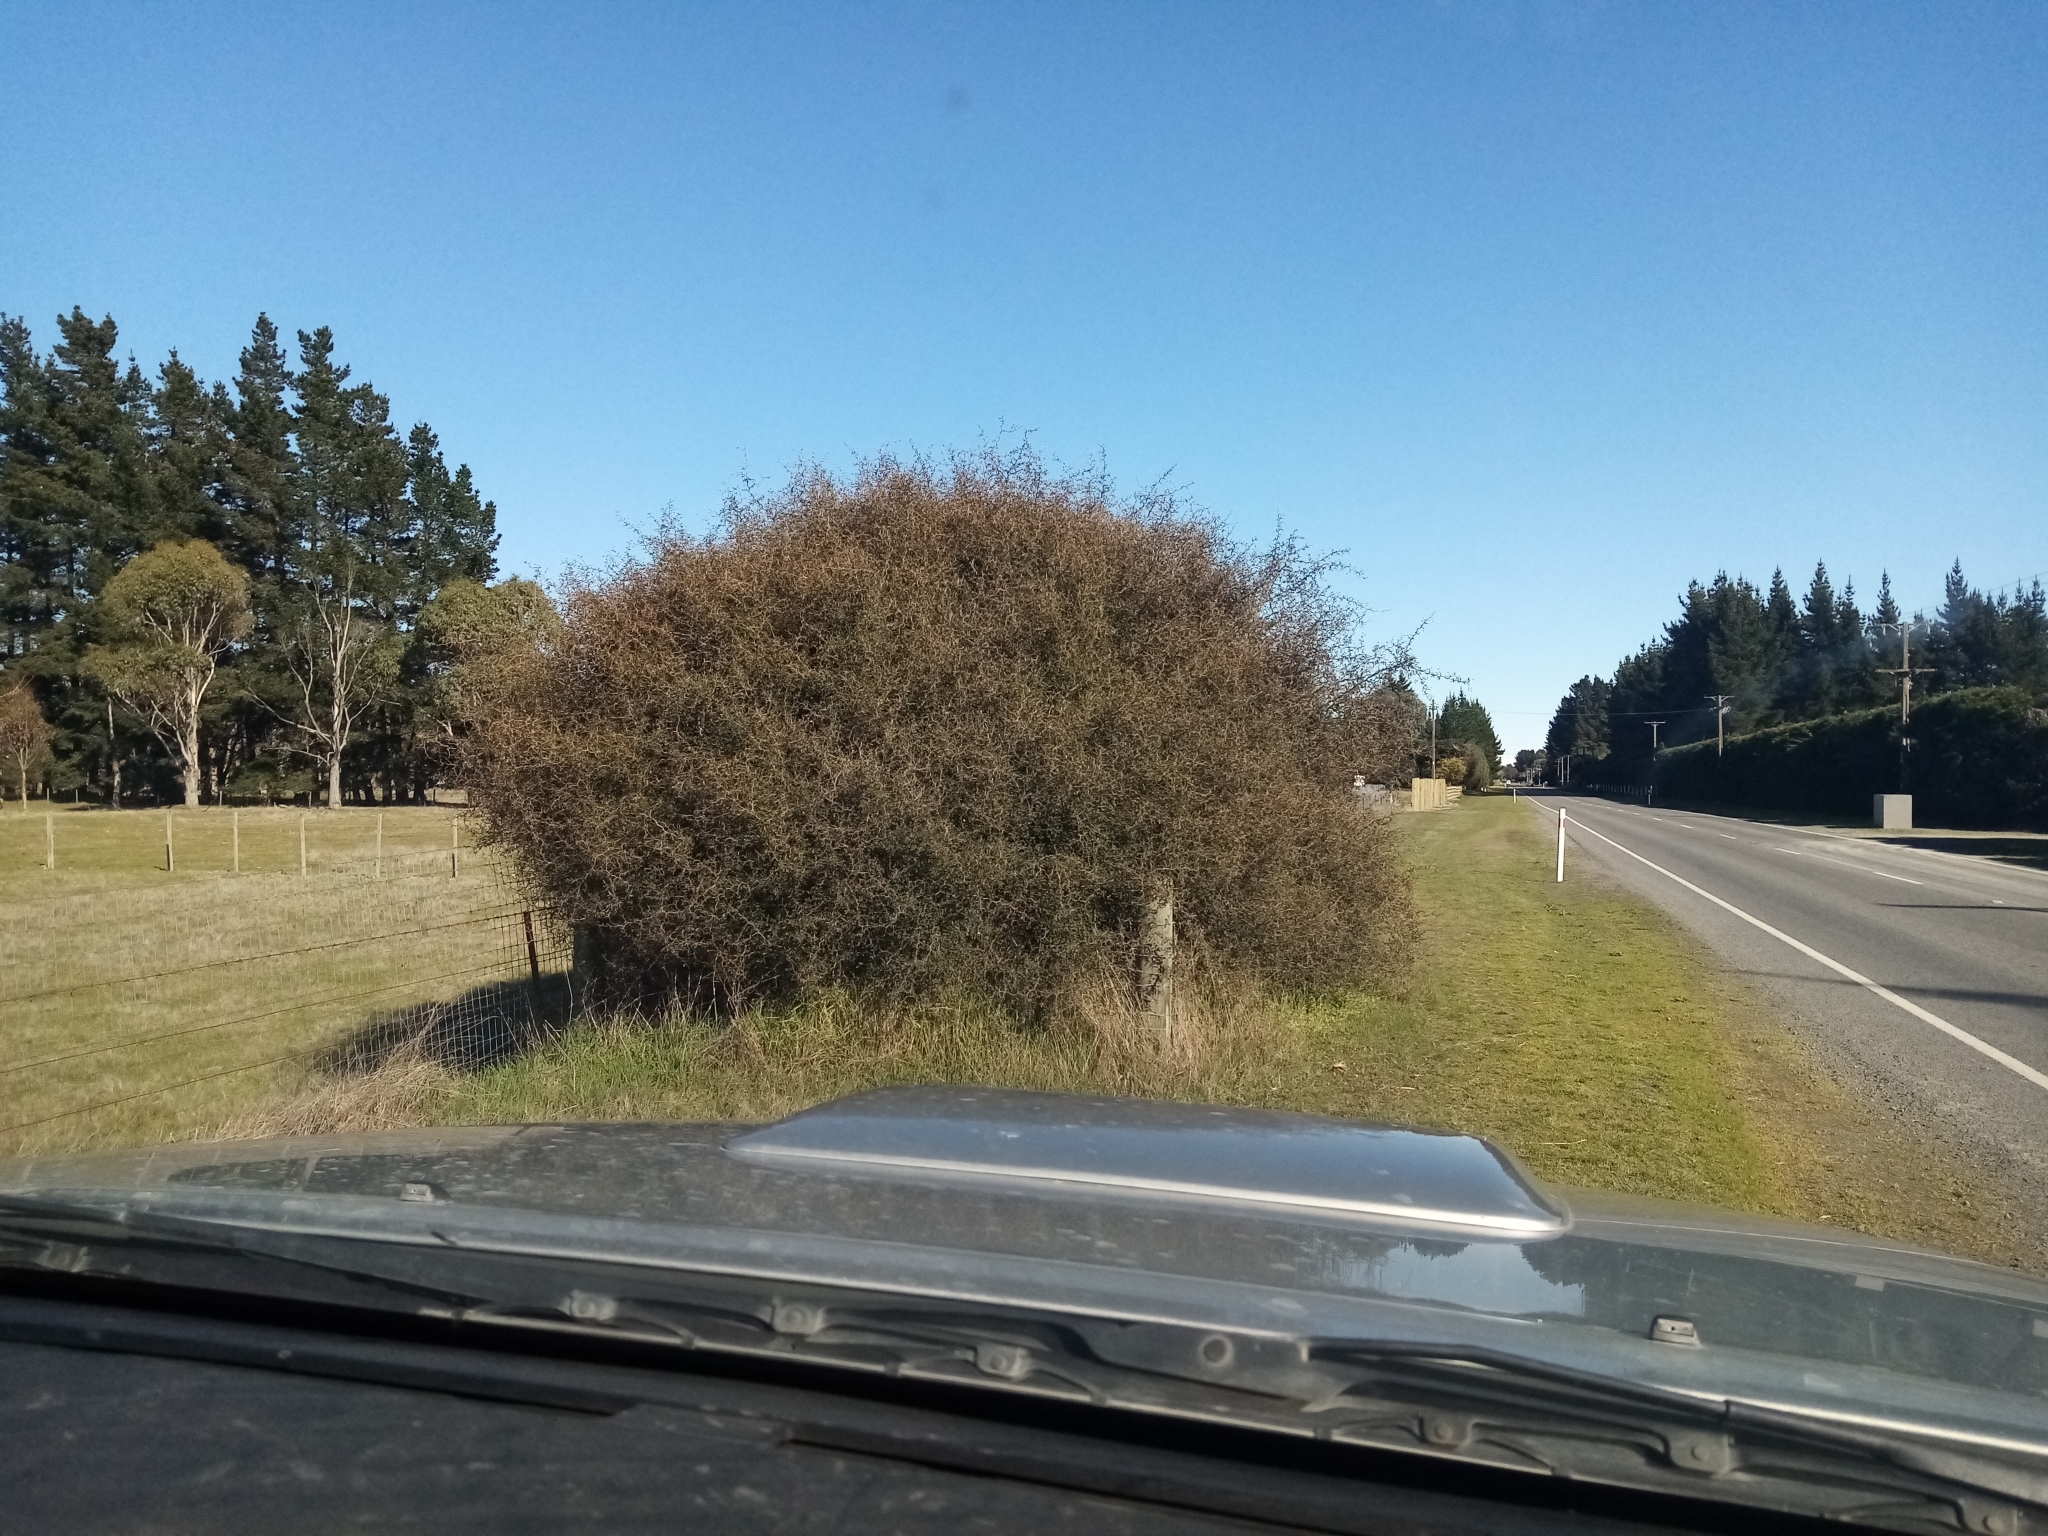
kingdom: Plantae
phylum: Tracheophyta
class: Magnoliopsida
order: Fabales
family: Fabaceae
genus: Sophora
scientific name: Sophora prostrata
